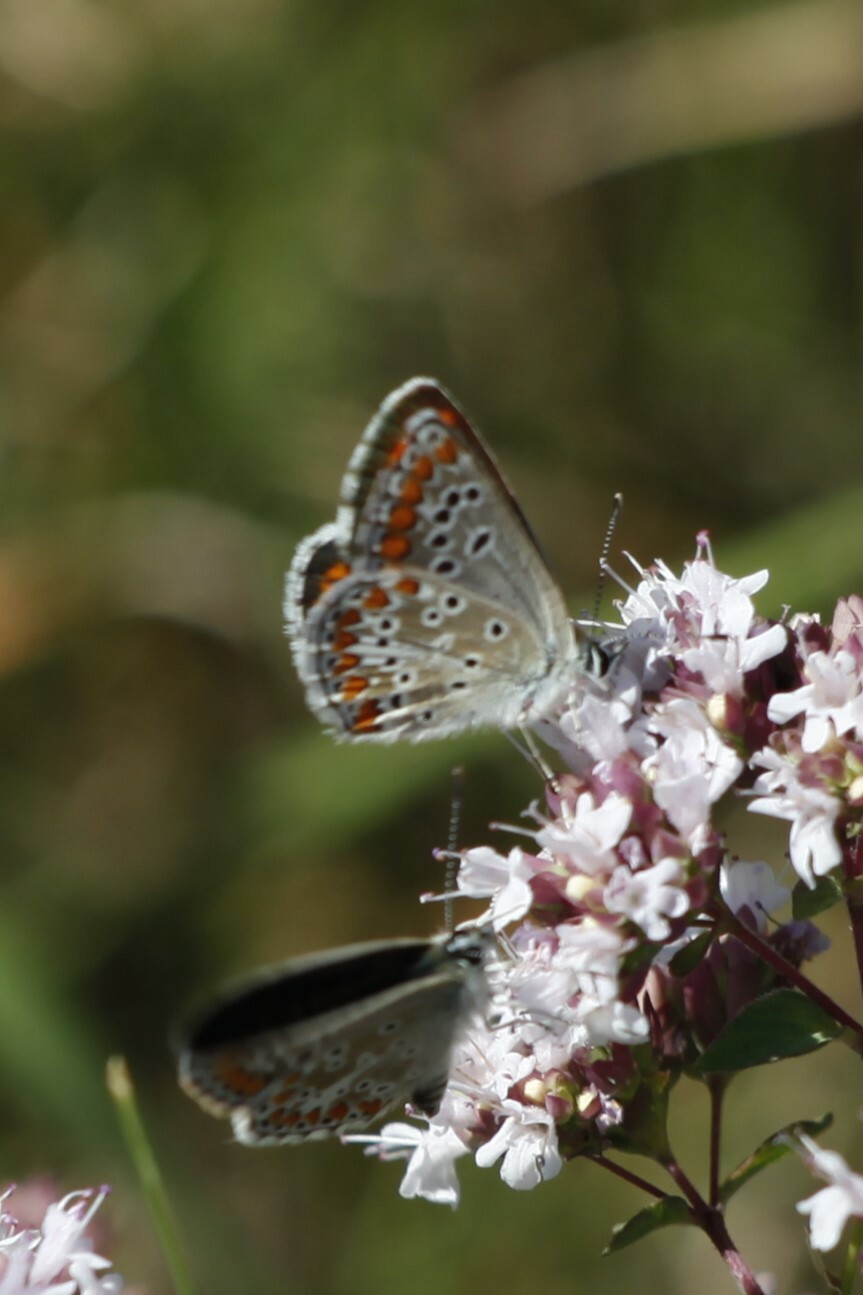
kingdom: Animalia
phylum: Arthropoda
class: Insecta
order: Lepidoptera
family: Lycaenidae
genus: Aricia
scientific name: Aricia agestis
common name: Brown argus
